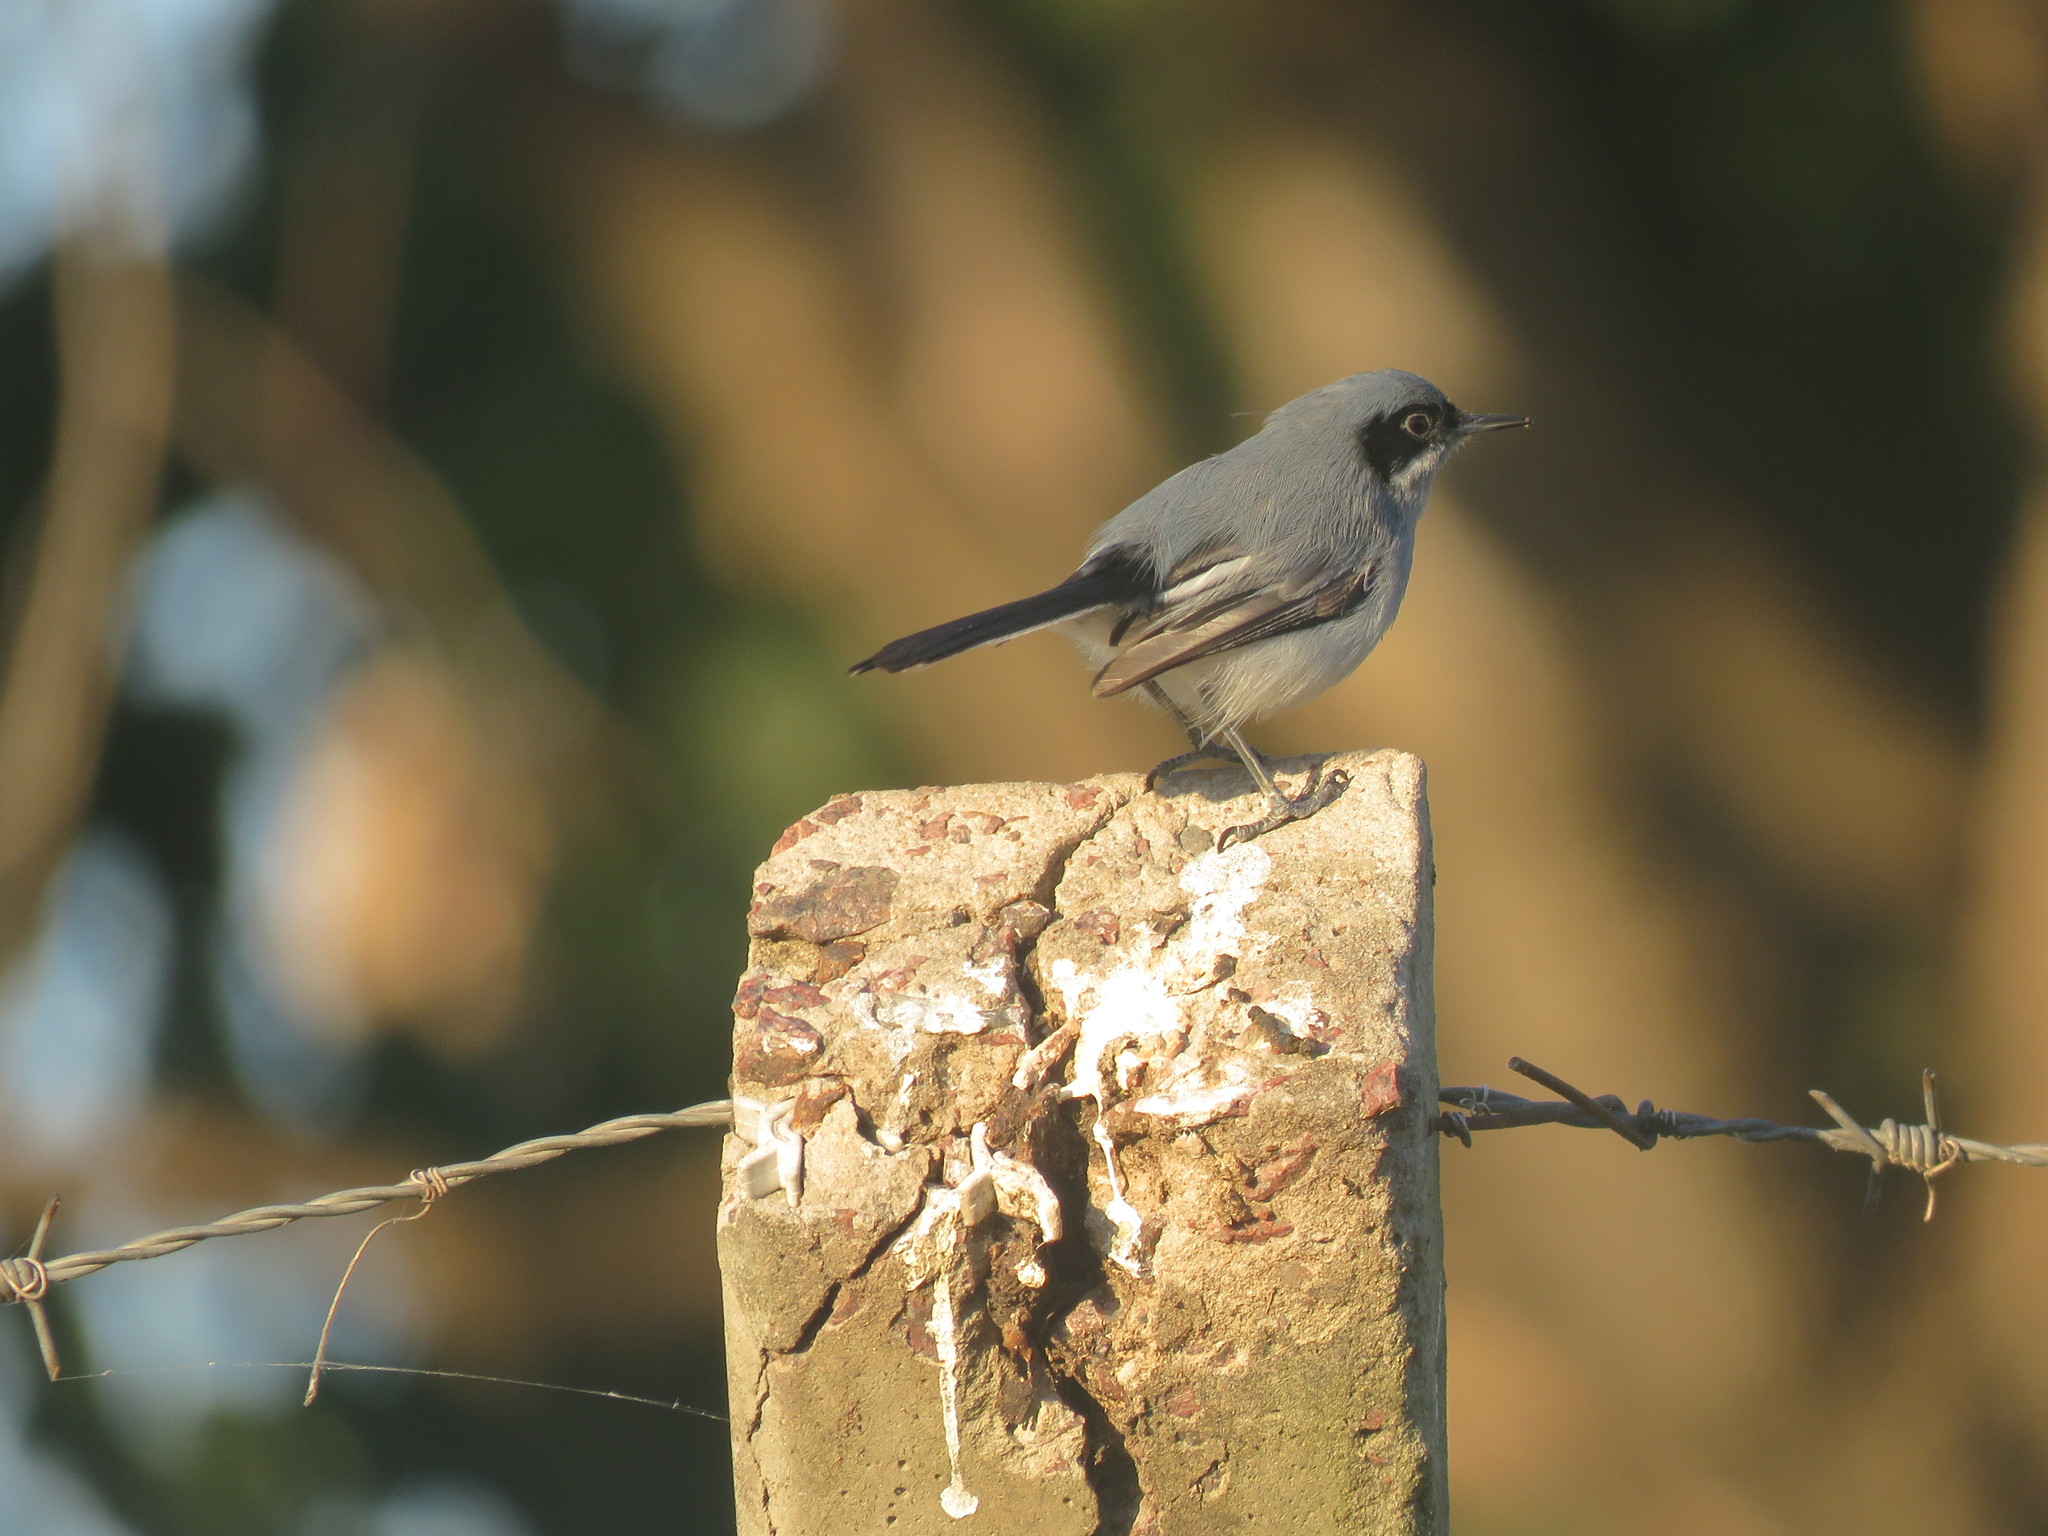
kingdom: Animalia
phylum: Chordata
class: Aves
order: Passeriformes
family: Polioptilidae
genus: Polioptila
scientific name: Polioptila dumicola
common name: Masked gnatcatcher
